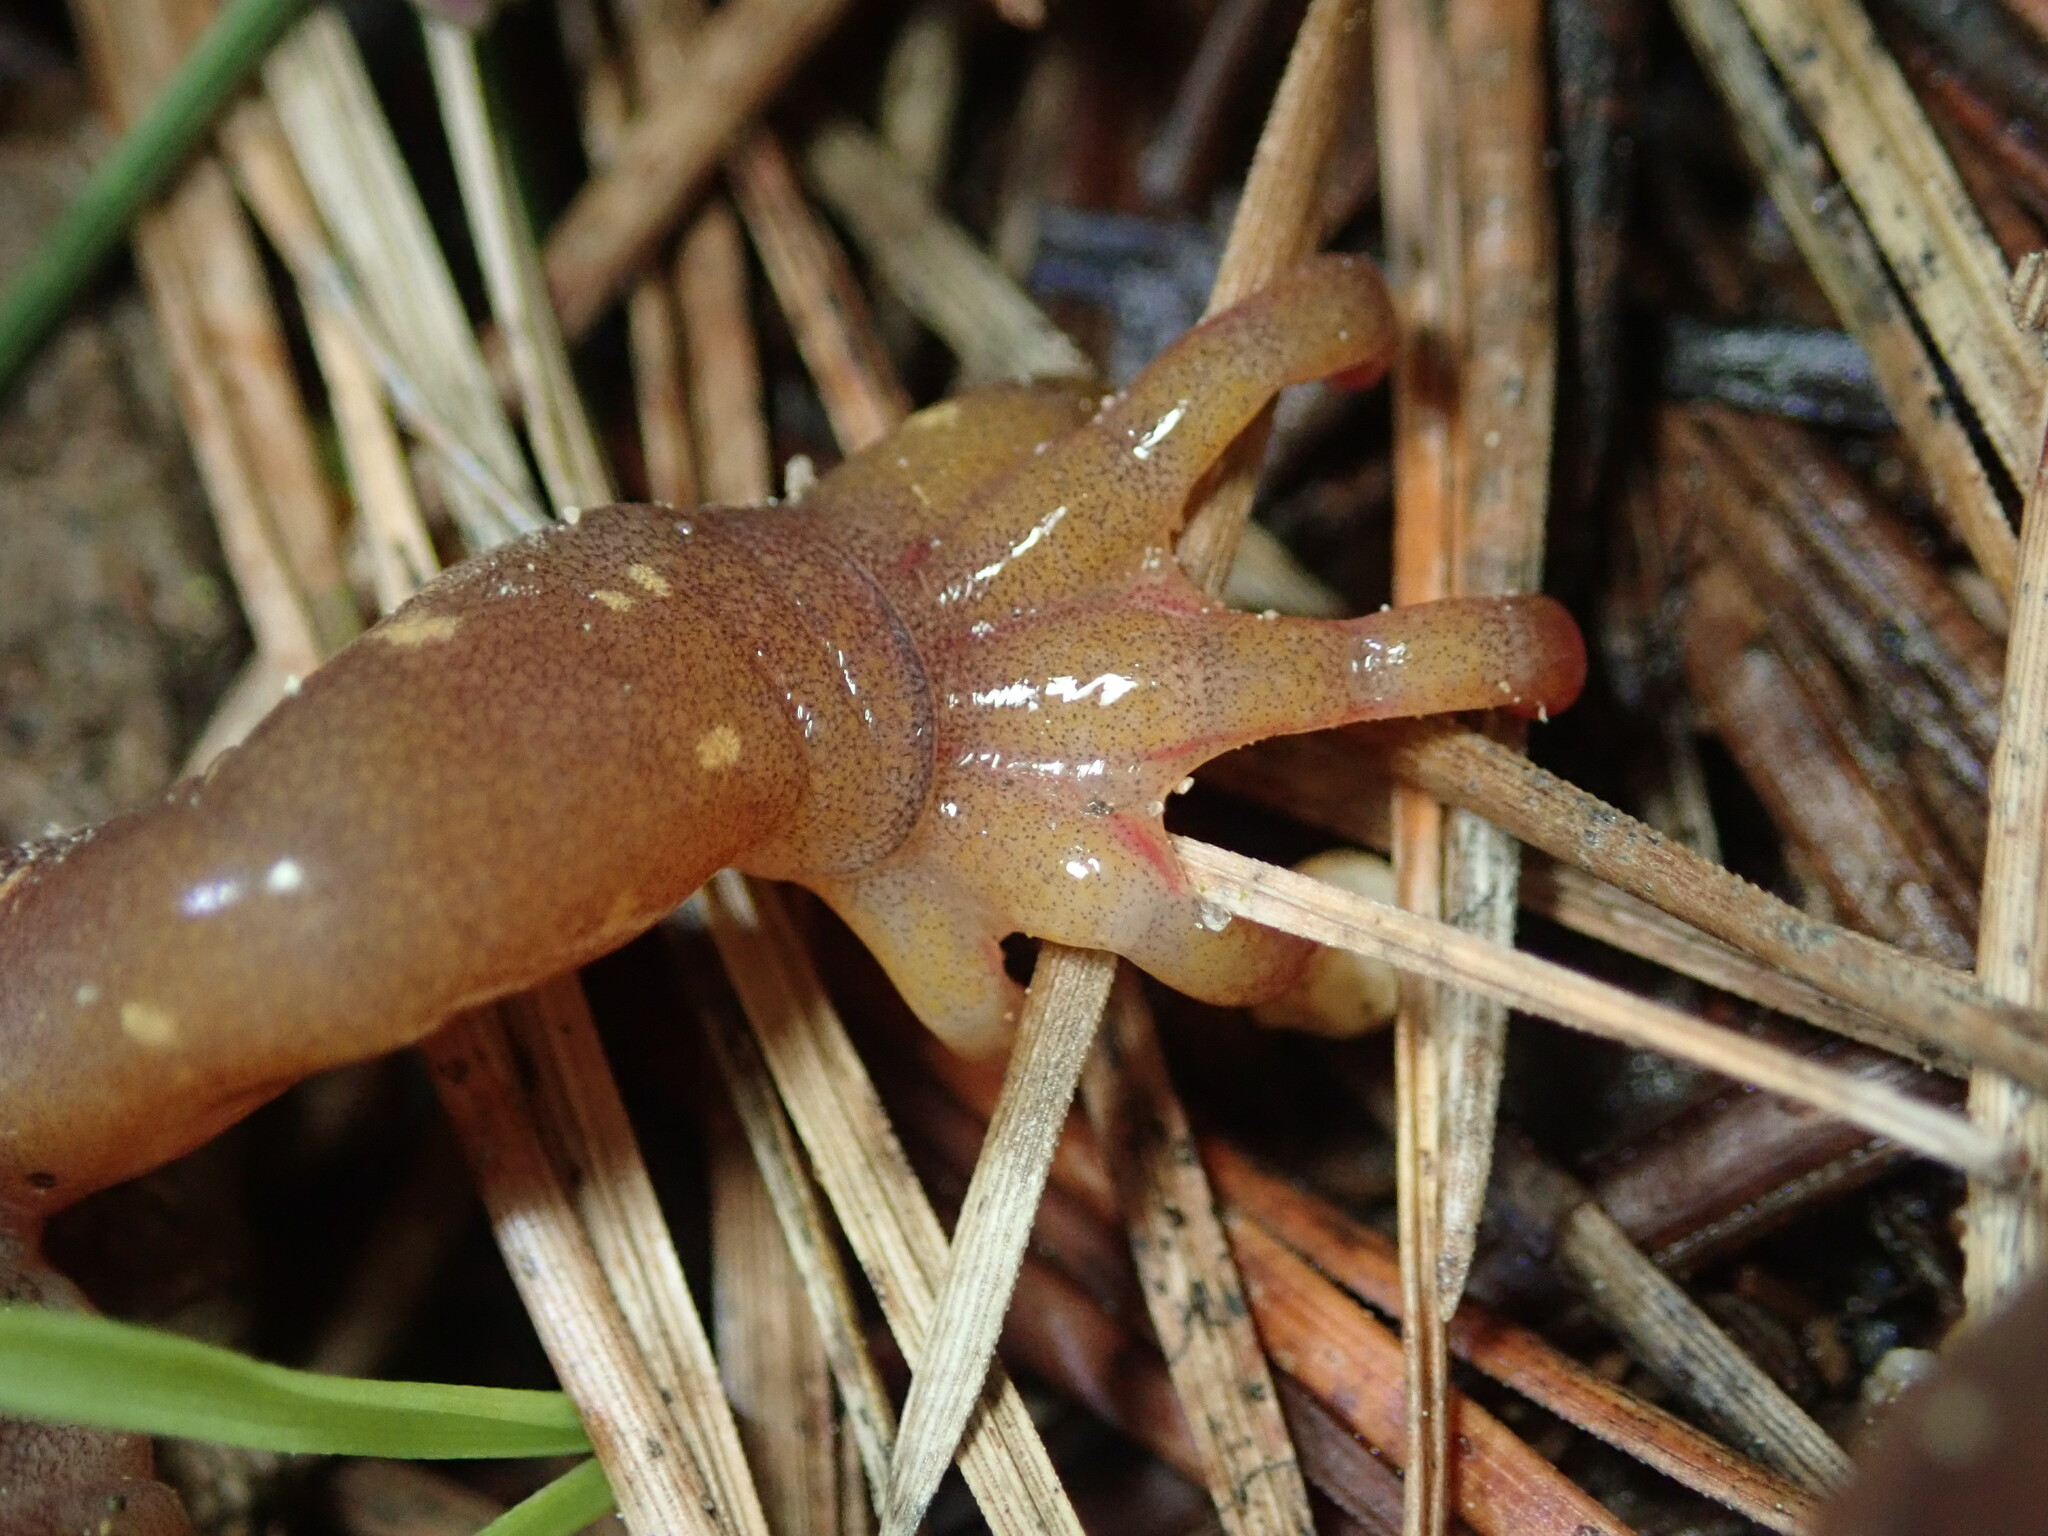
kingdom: Animalia
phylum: Chordata
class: Amphibia
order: Caudata
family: Plethodontidae
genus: Aneides
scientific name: Aneides lugubris
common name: Arboreal salamander
